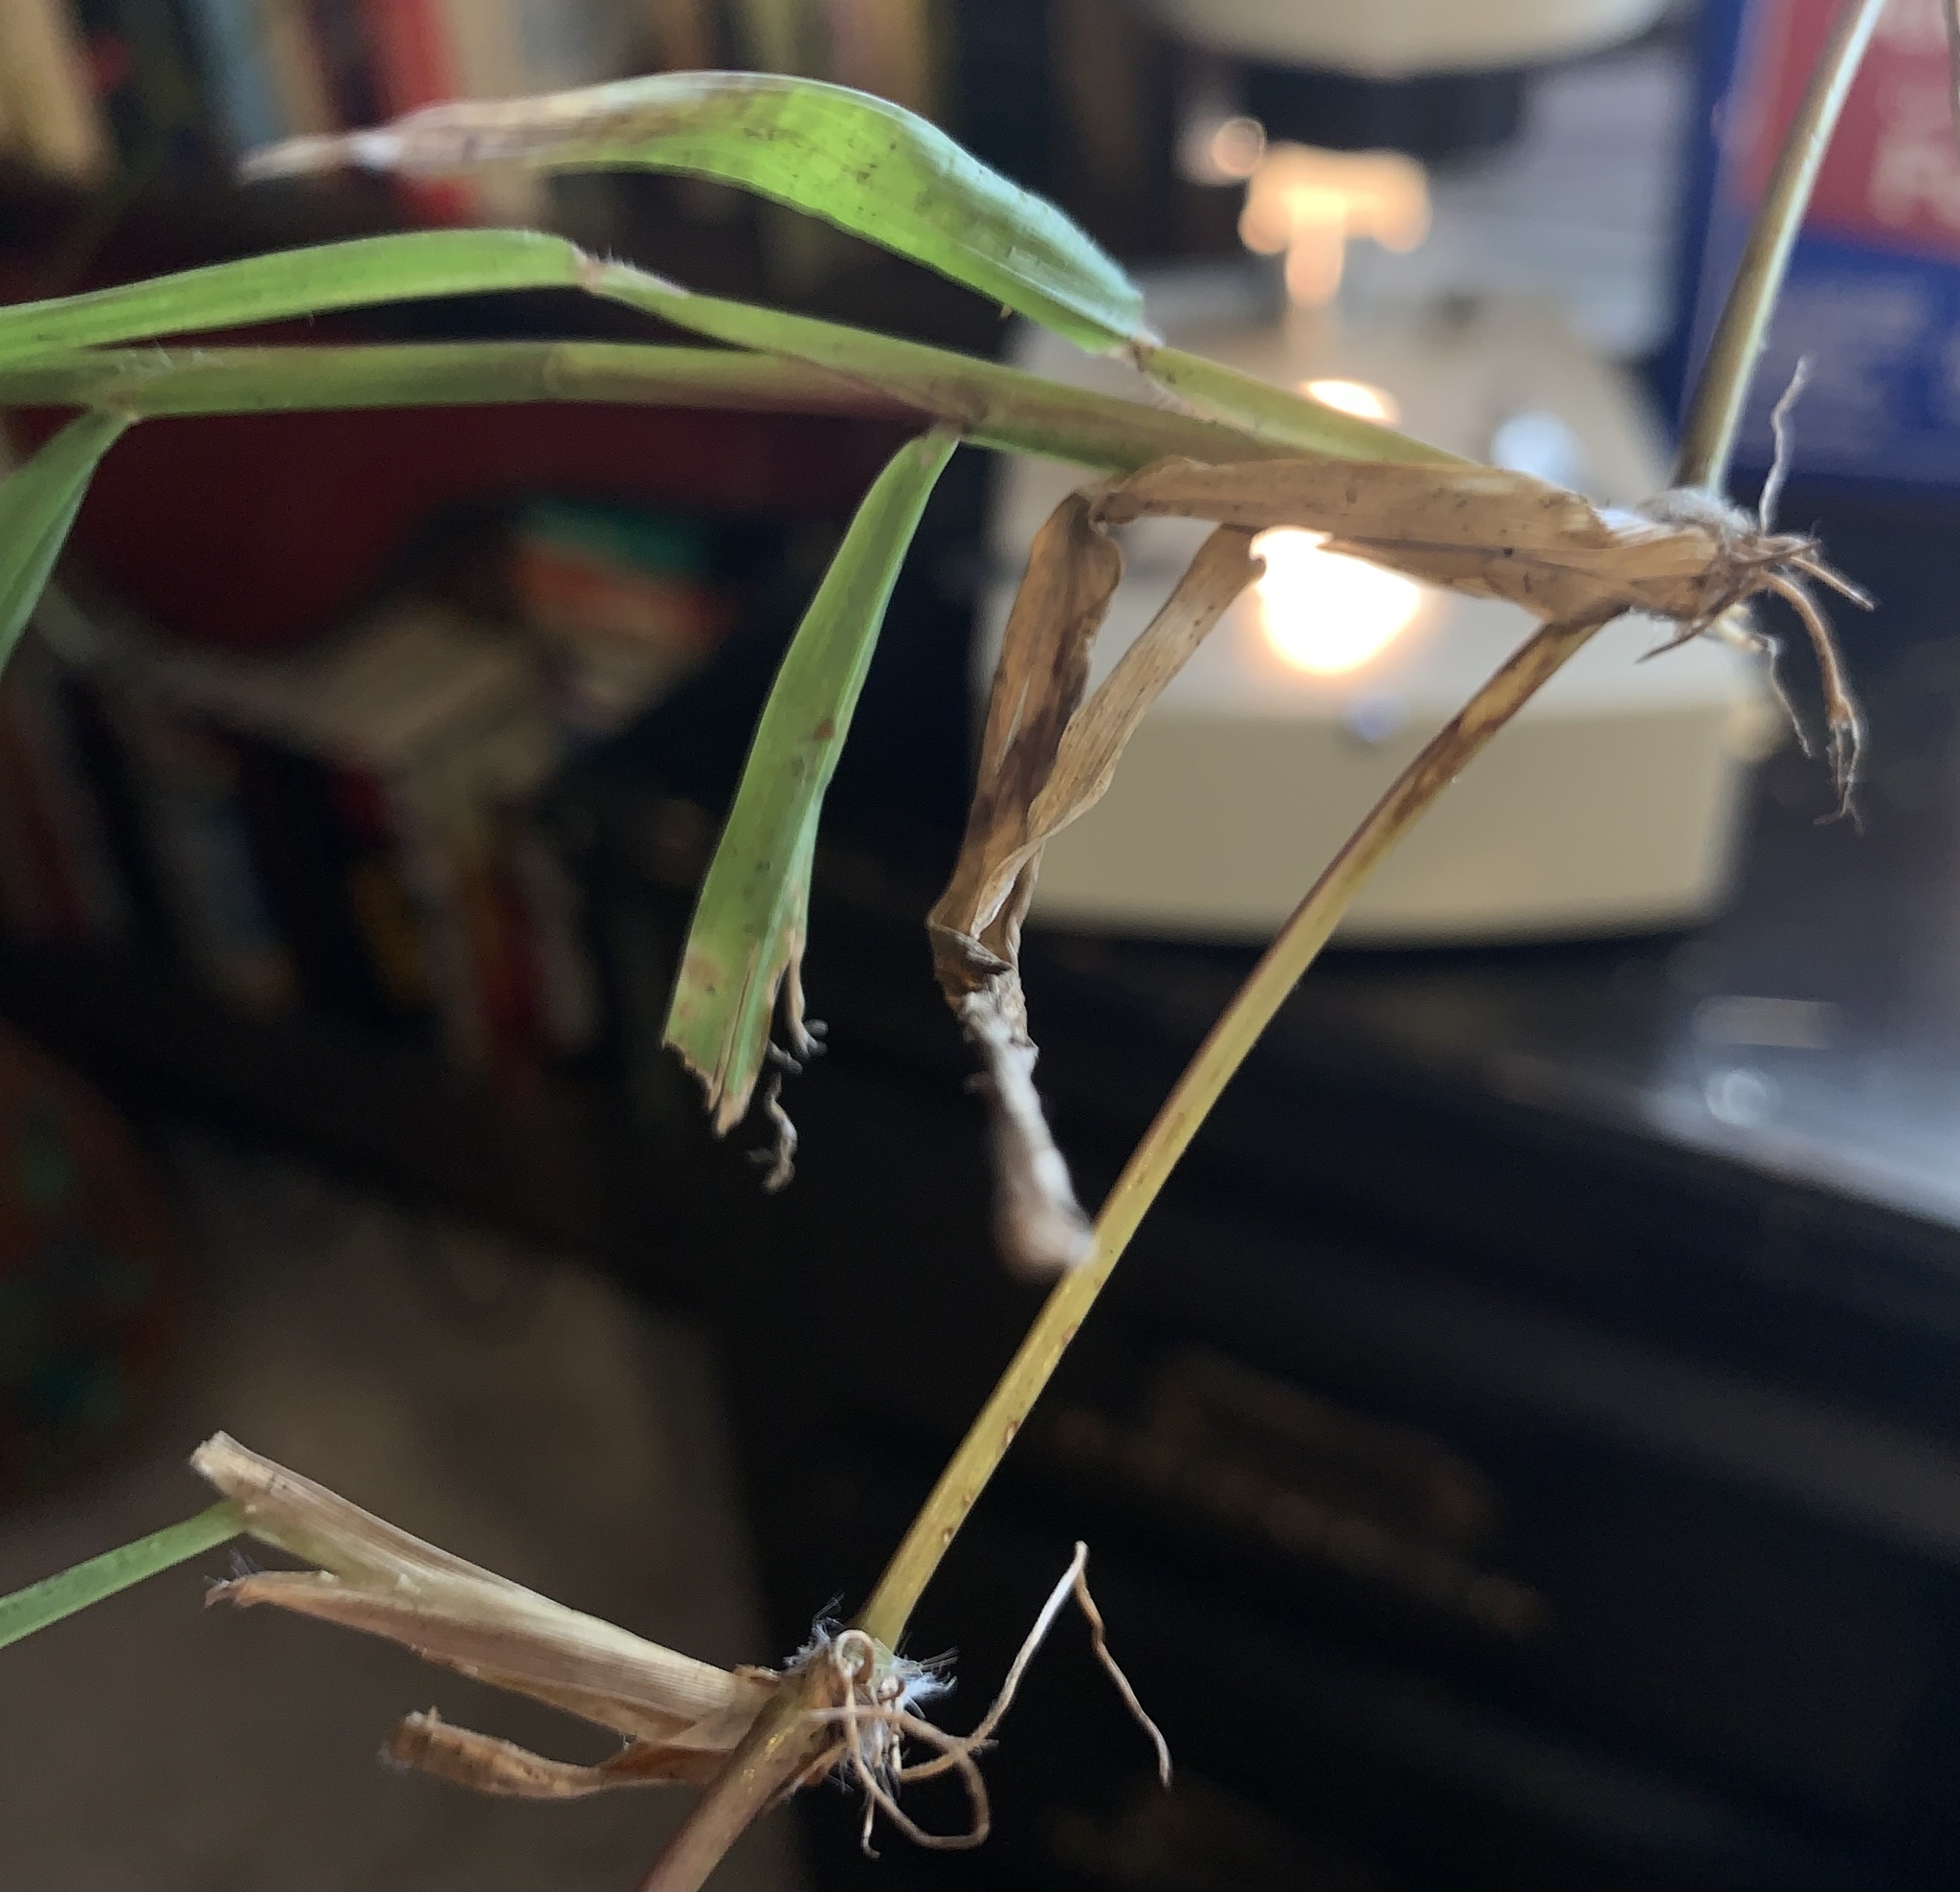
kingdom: Plantae
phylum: Tracheophyta
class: Liliopsida
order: Poales
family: Poaceae
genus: Paspalum
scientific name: Paspalum conjugatum
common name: Hilograss
